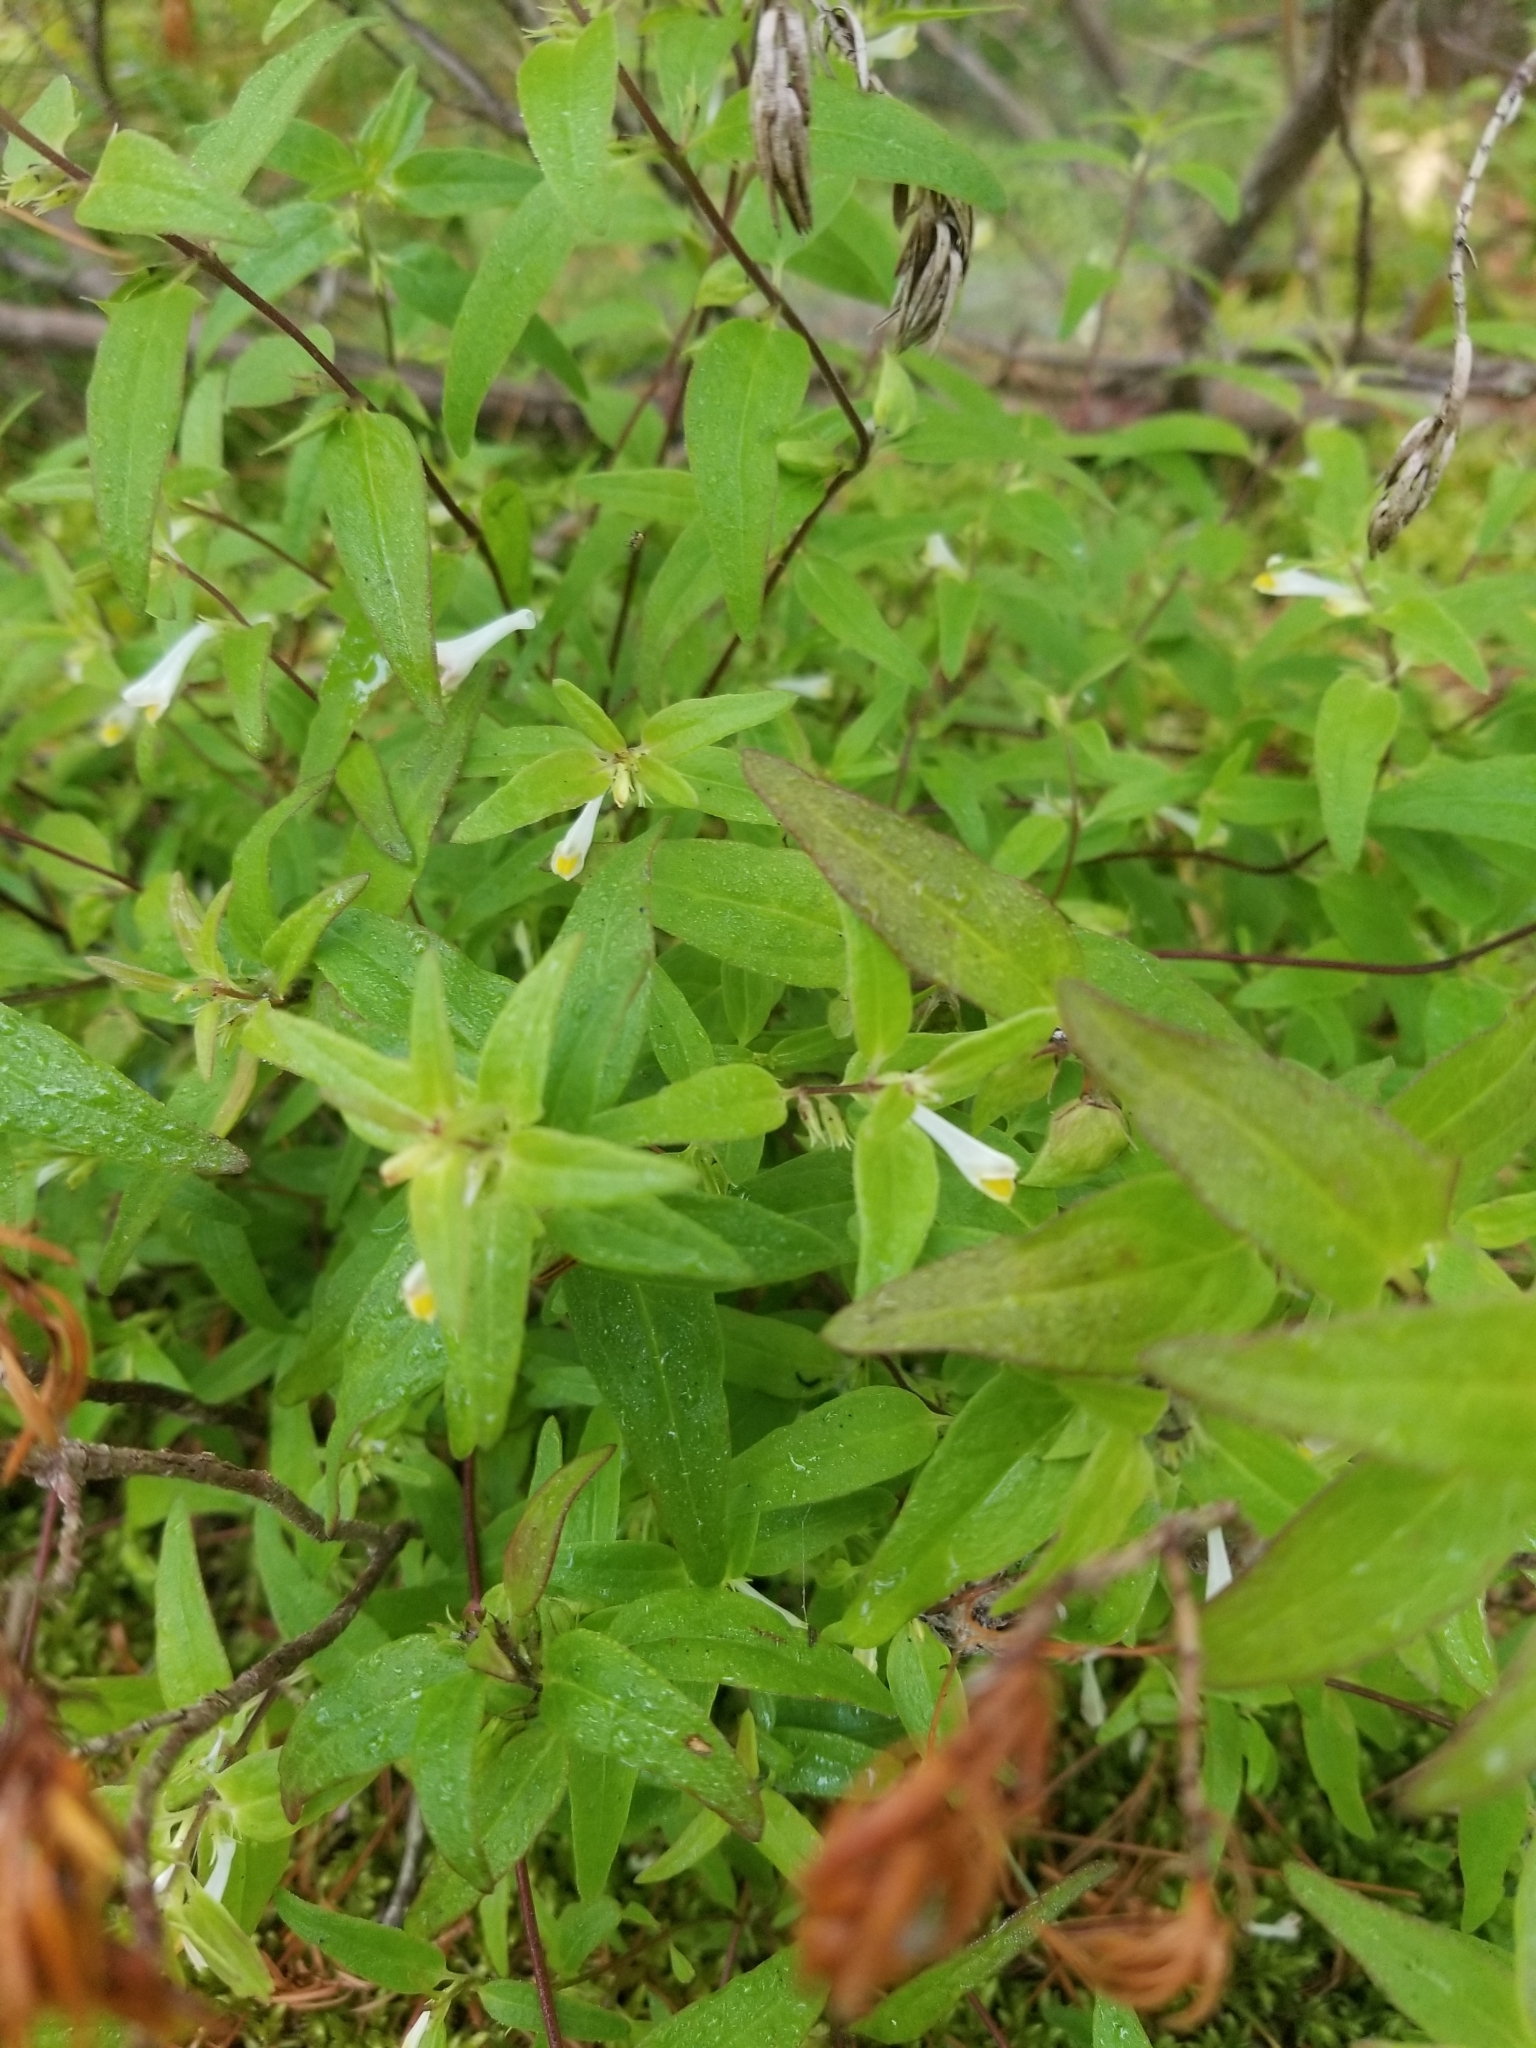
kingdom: Plantae
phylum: Tracheophyta
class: Magnoliopsida
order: Lamiales
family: Orobanchaceae
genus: Melampyrum
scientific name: Melampyrum lineare
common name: American cow-wheat
